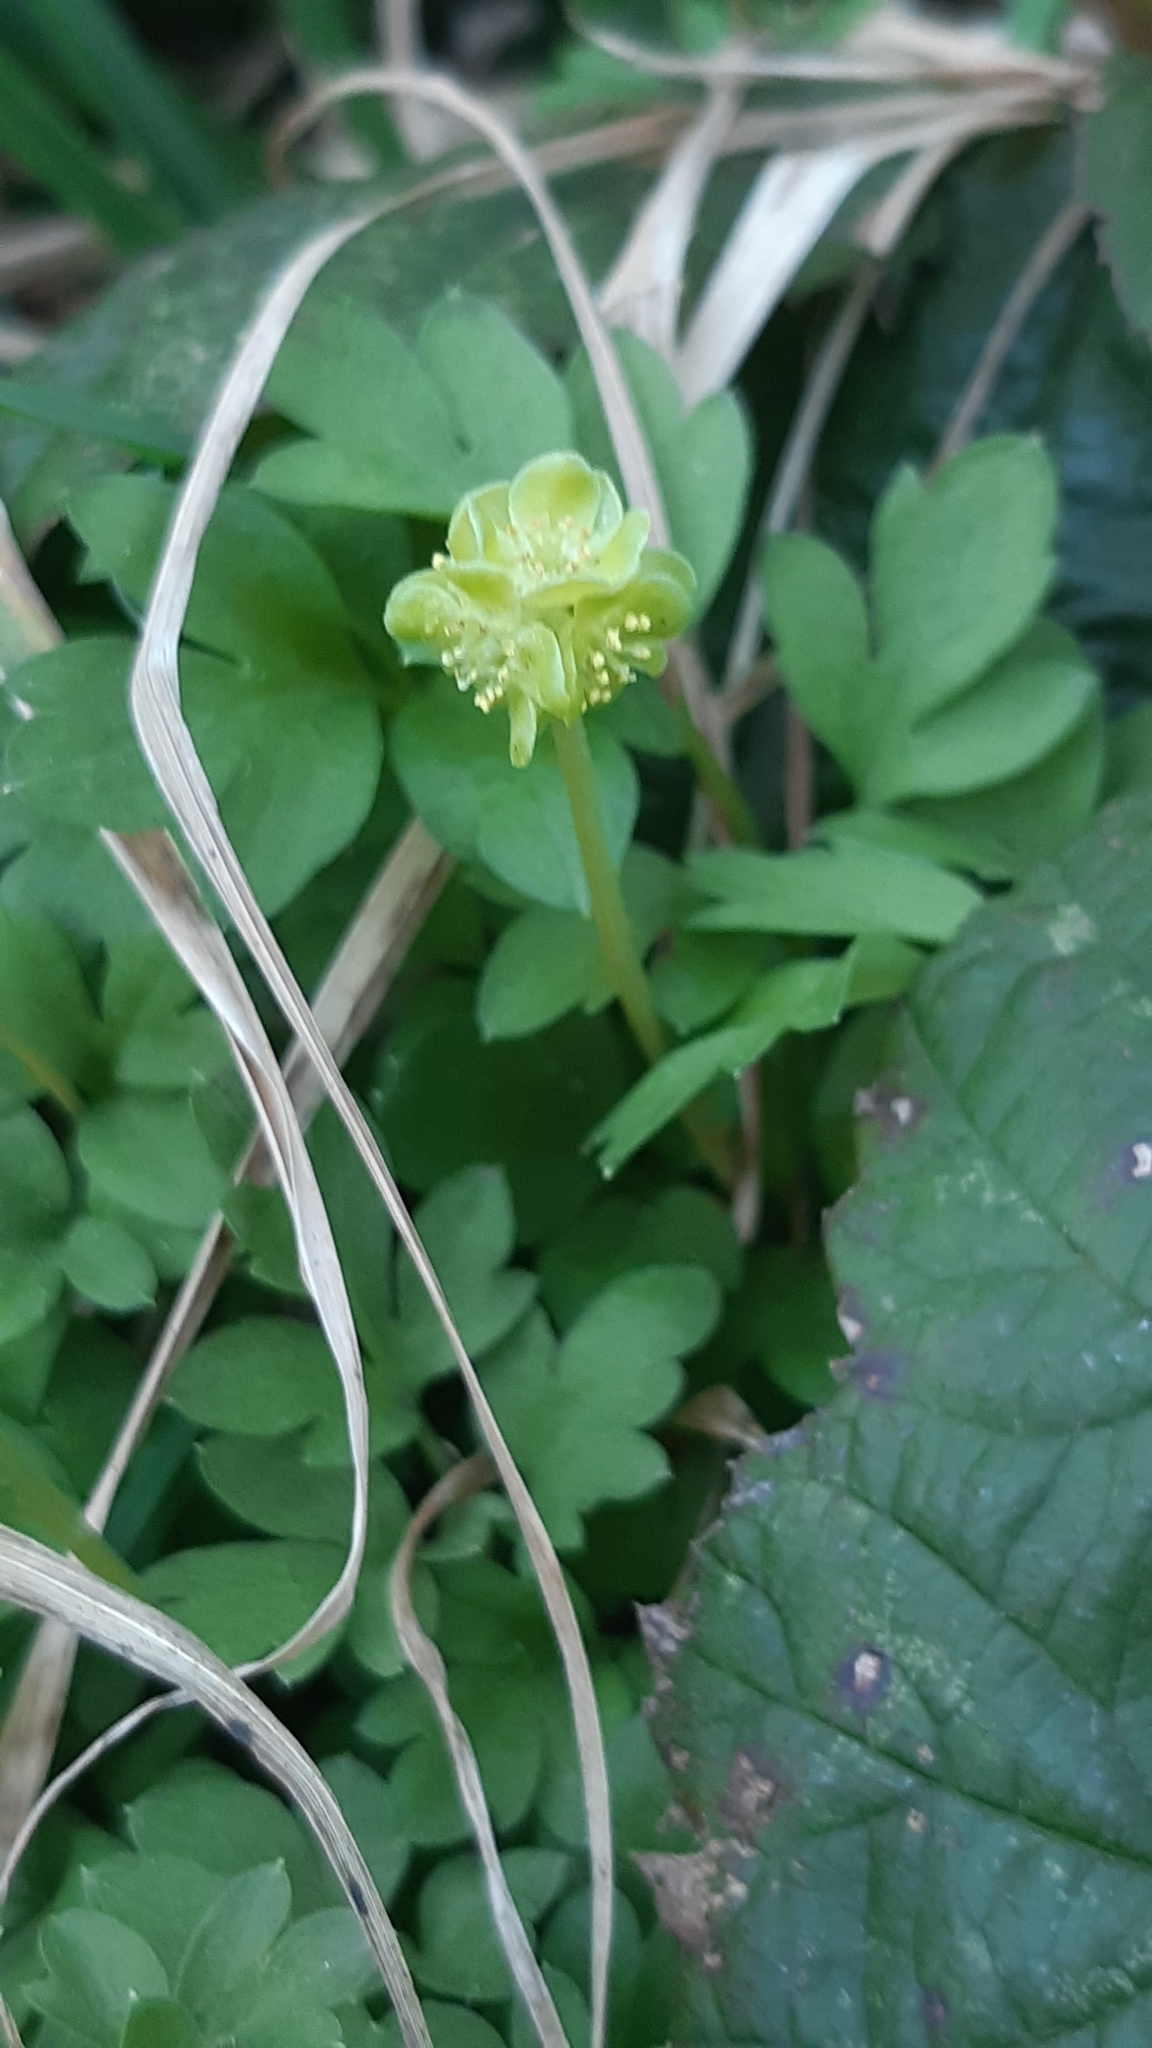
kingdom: Plantae
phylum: Tracheophyta
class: Magnoliopsida
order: Dipsacales
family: Viburnaceae
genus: Adoxa
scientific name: Adoxa moschatellina
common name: Moschatel
